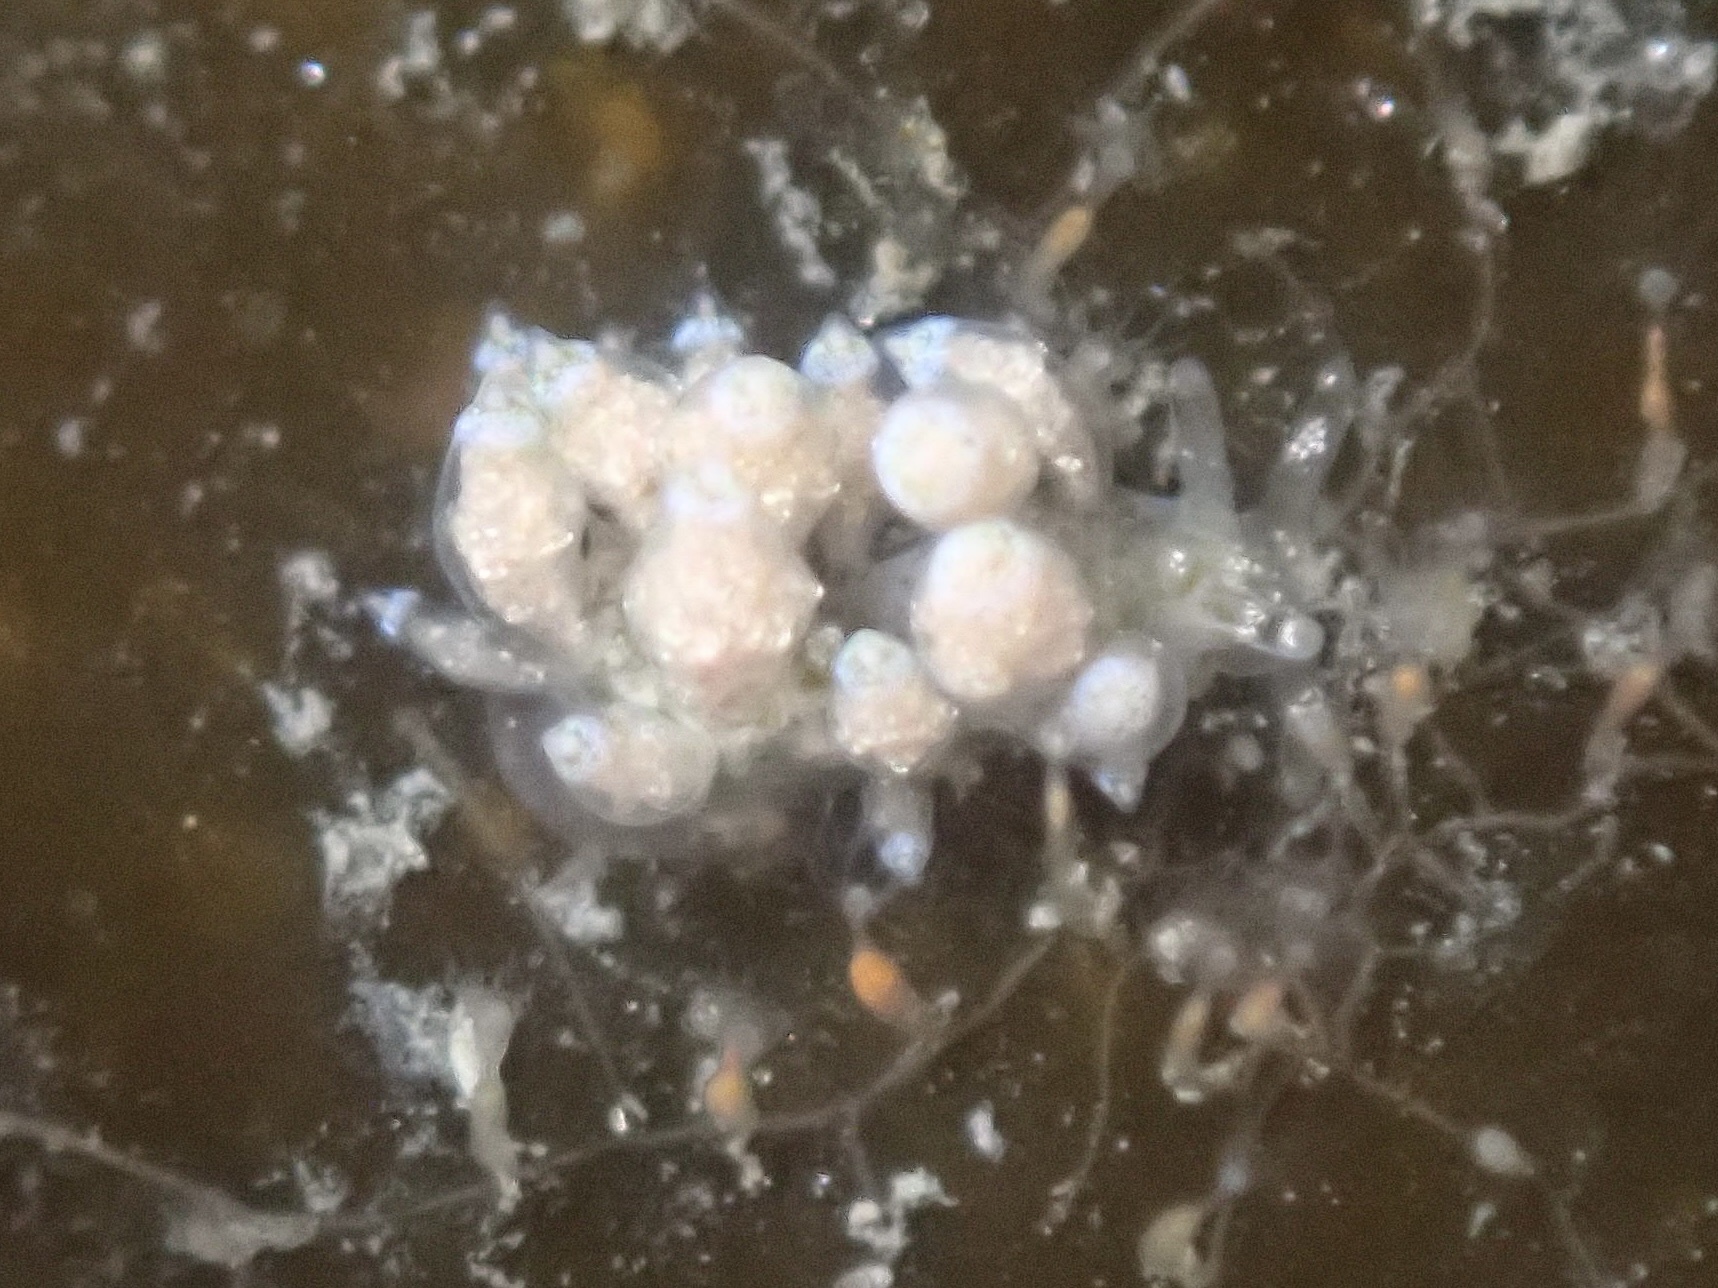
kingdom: Animalia
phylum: Mollusca
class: Gastropoda
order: Nudibranchia
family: Eubranchidae
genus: Eubranchus
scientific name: Eubranchus rustyus
